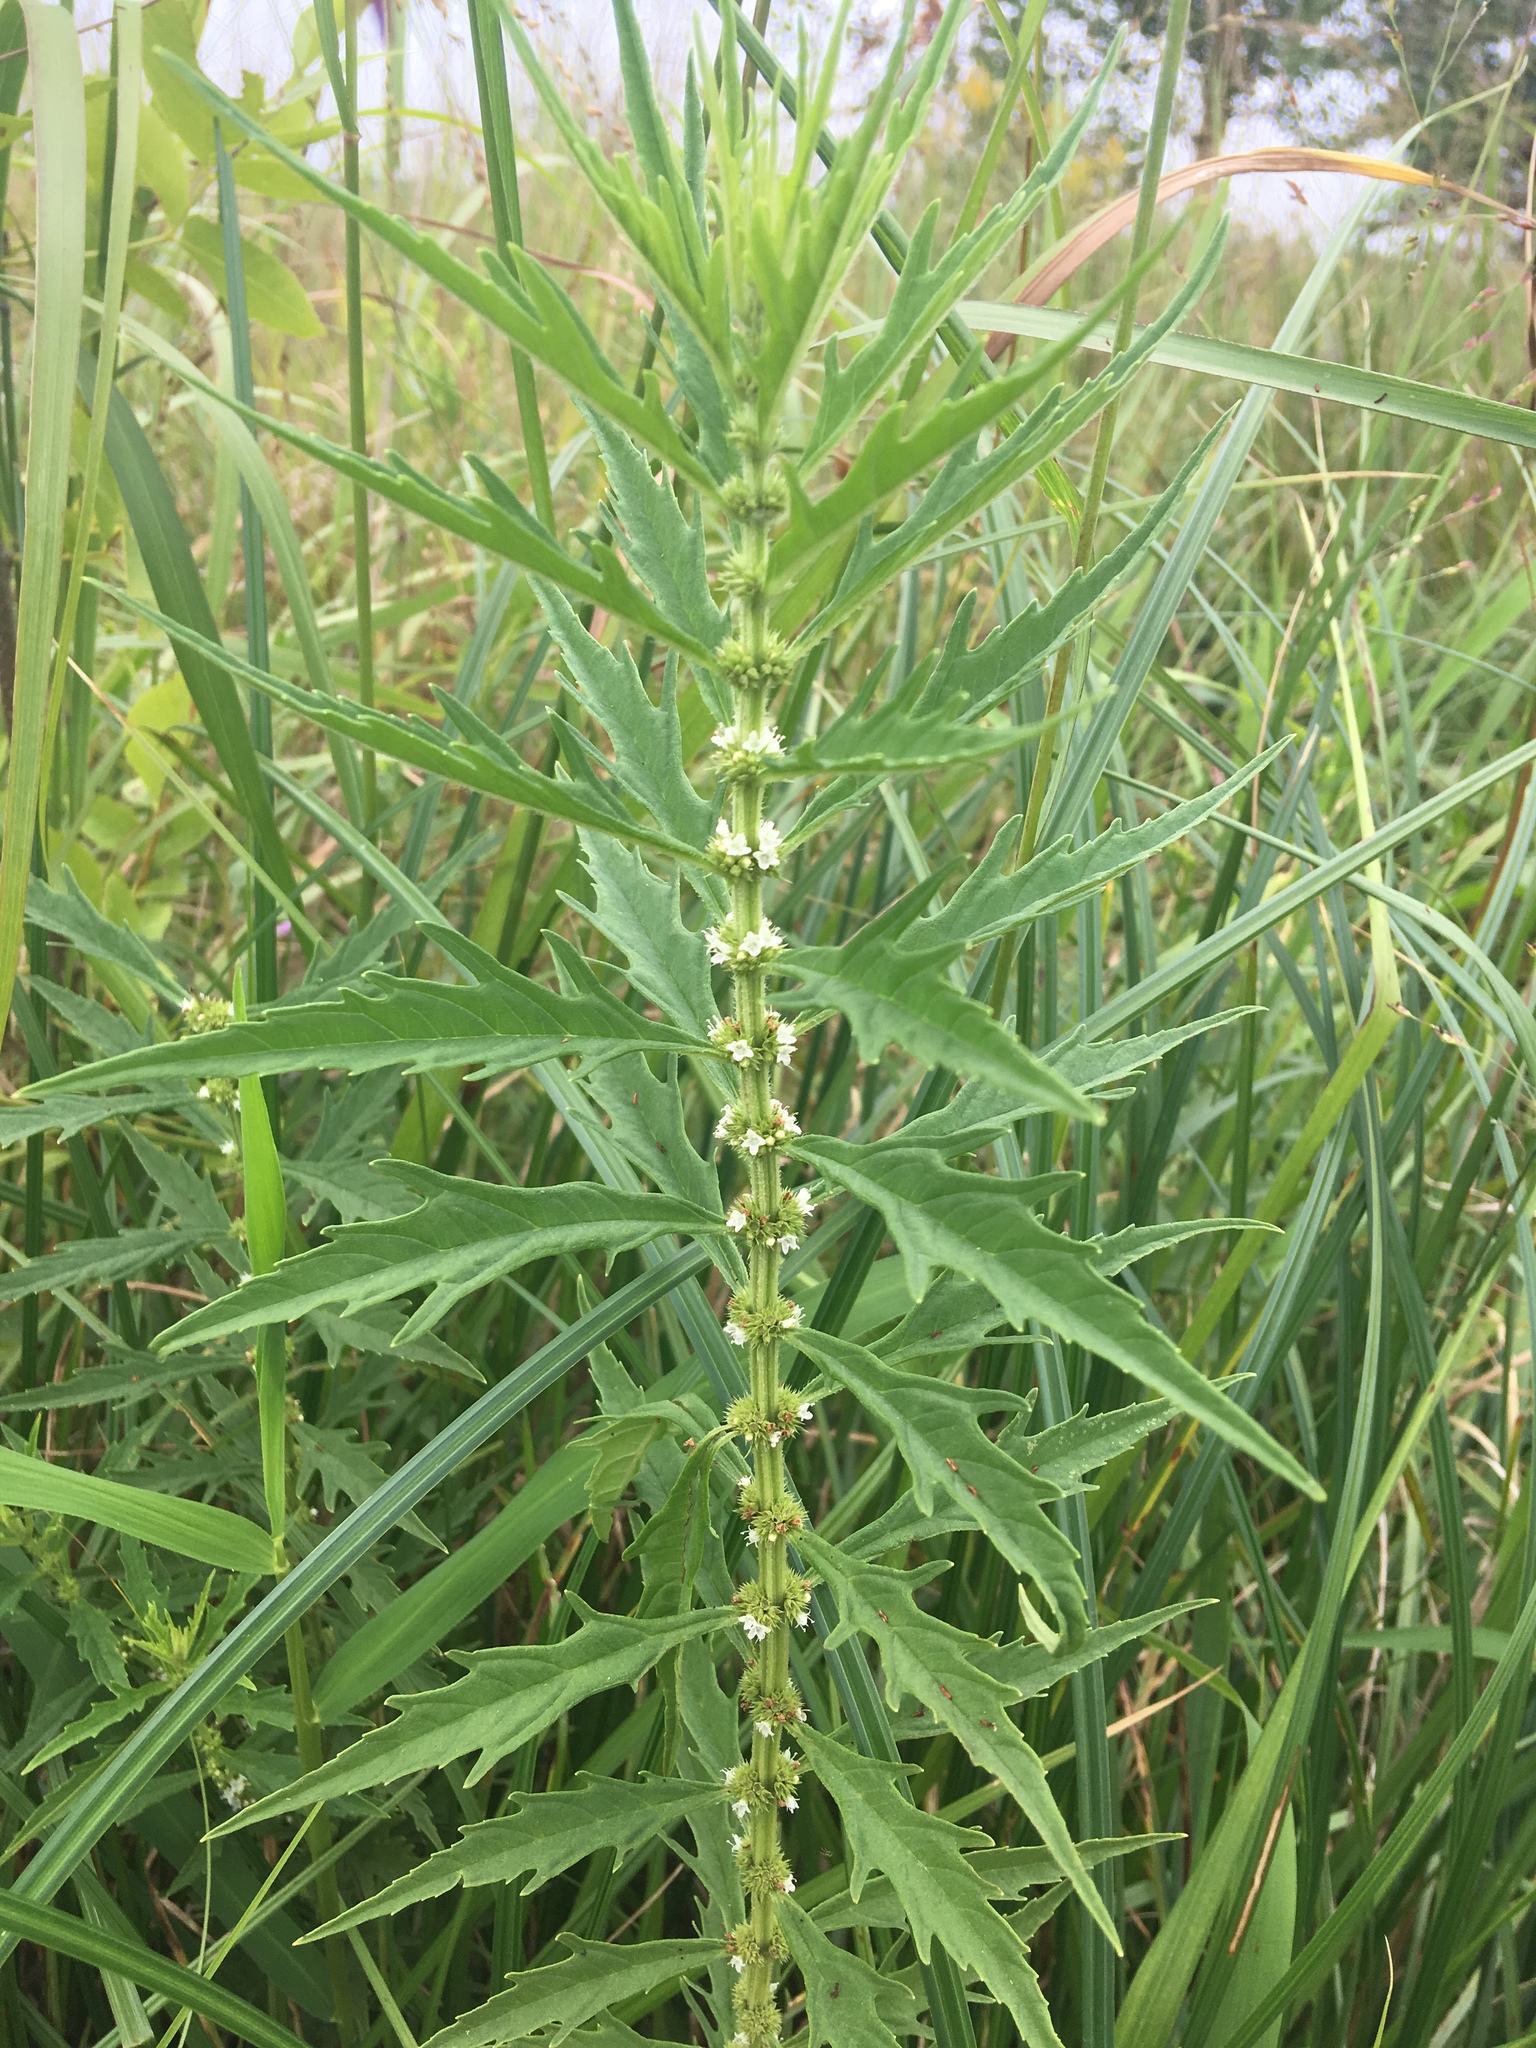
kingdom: Plantae
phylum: Tracheophyta
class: Magnoliopsida
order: Lamiales
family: Lamiaceae
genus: Lycopus
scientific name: Lycopus americanus
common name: American bugleweed
